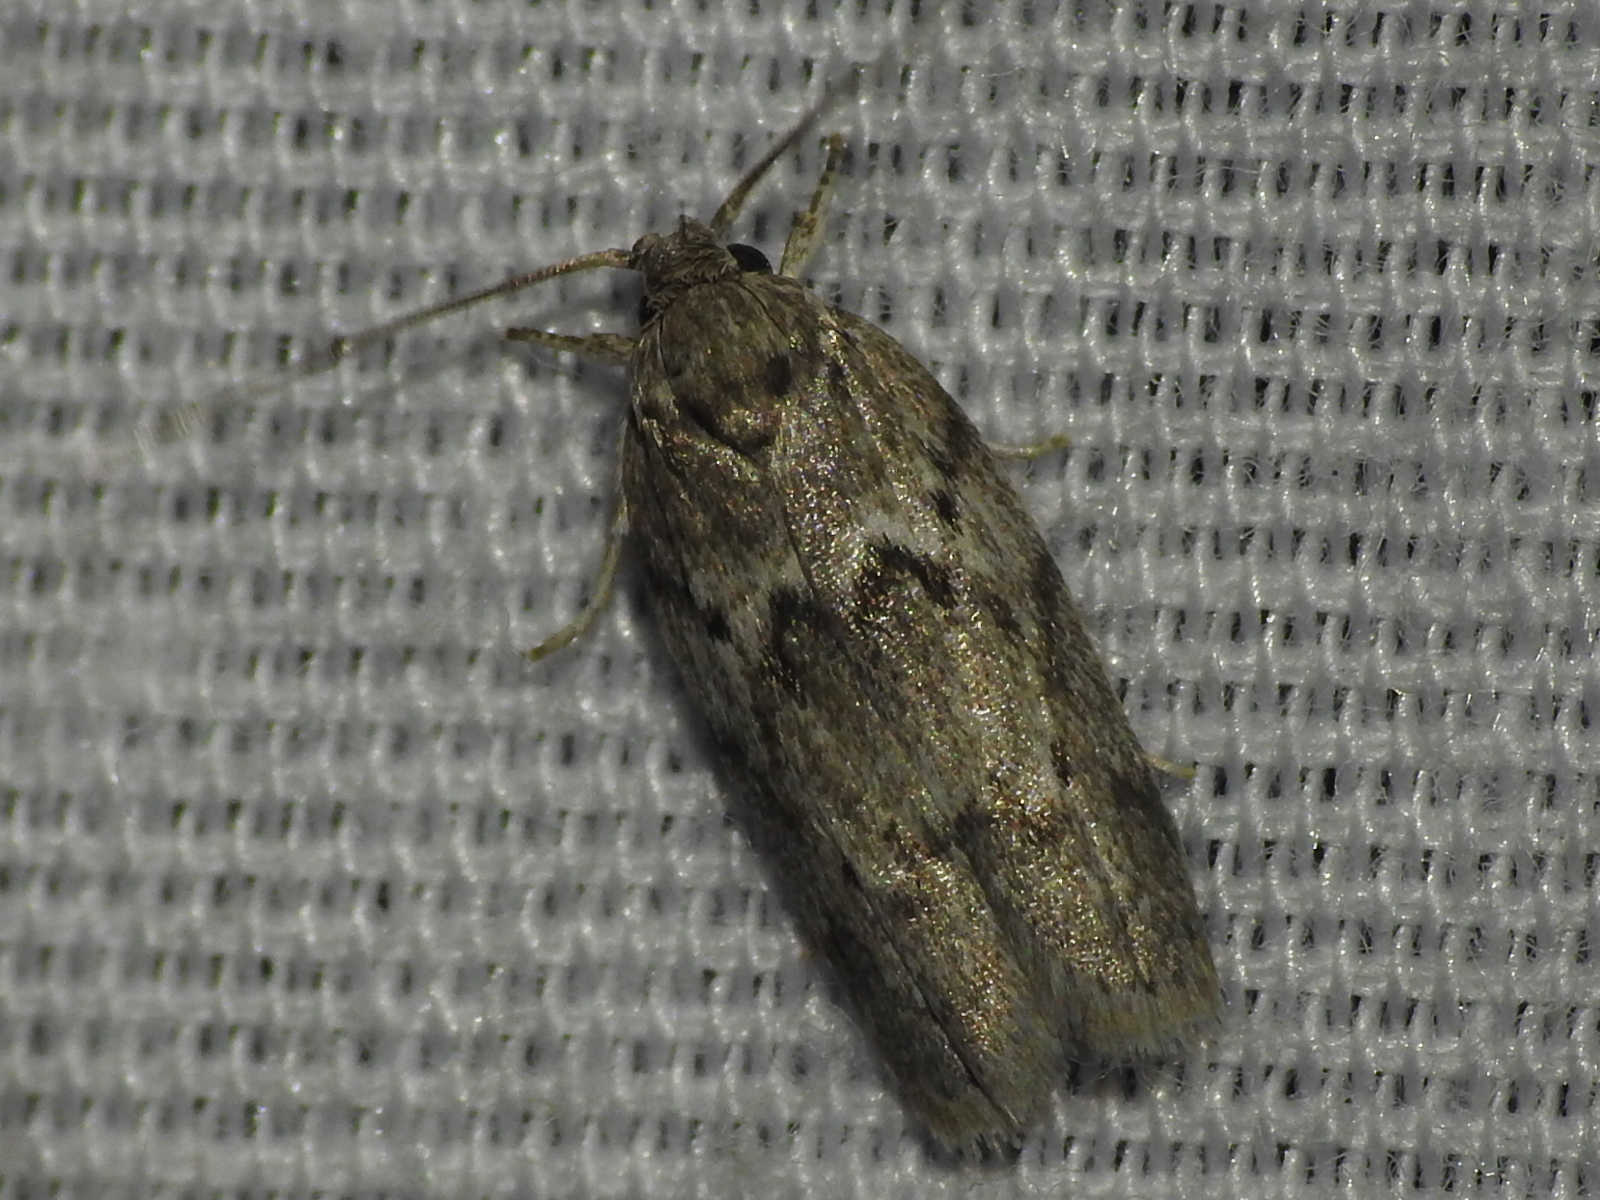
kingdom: Animalia
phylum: Arthropoda
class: Insecta
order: Lepidoptera
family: Depressariidae
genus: Antaeotricha
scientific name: Antaeotricha humilis
